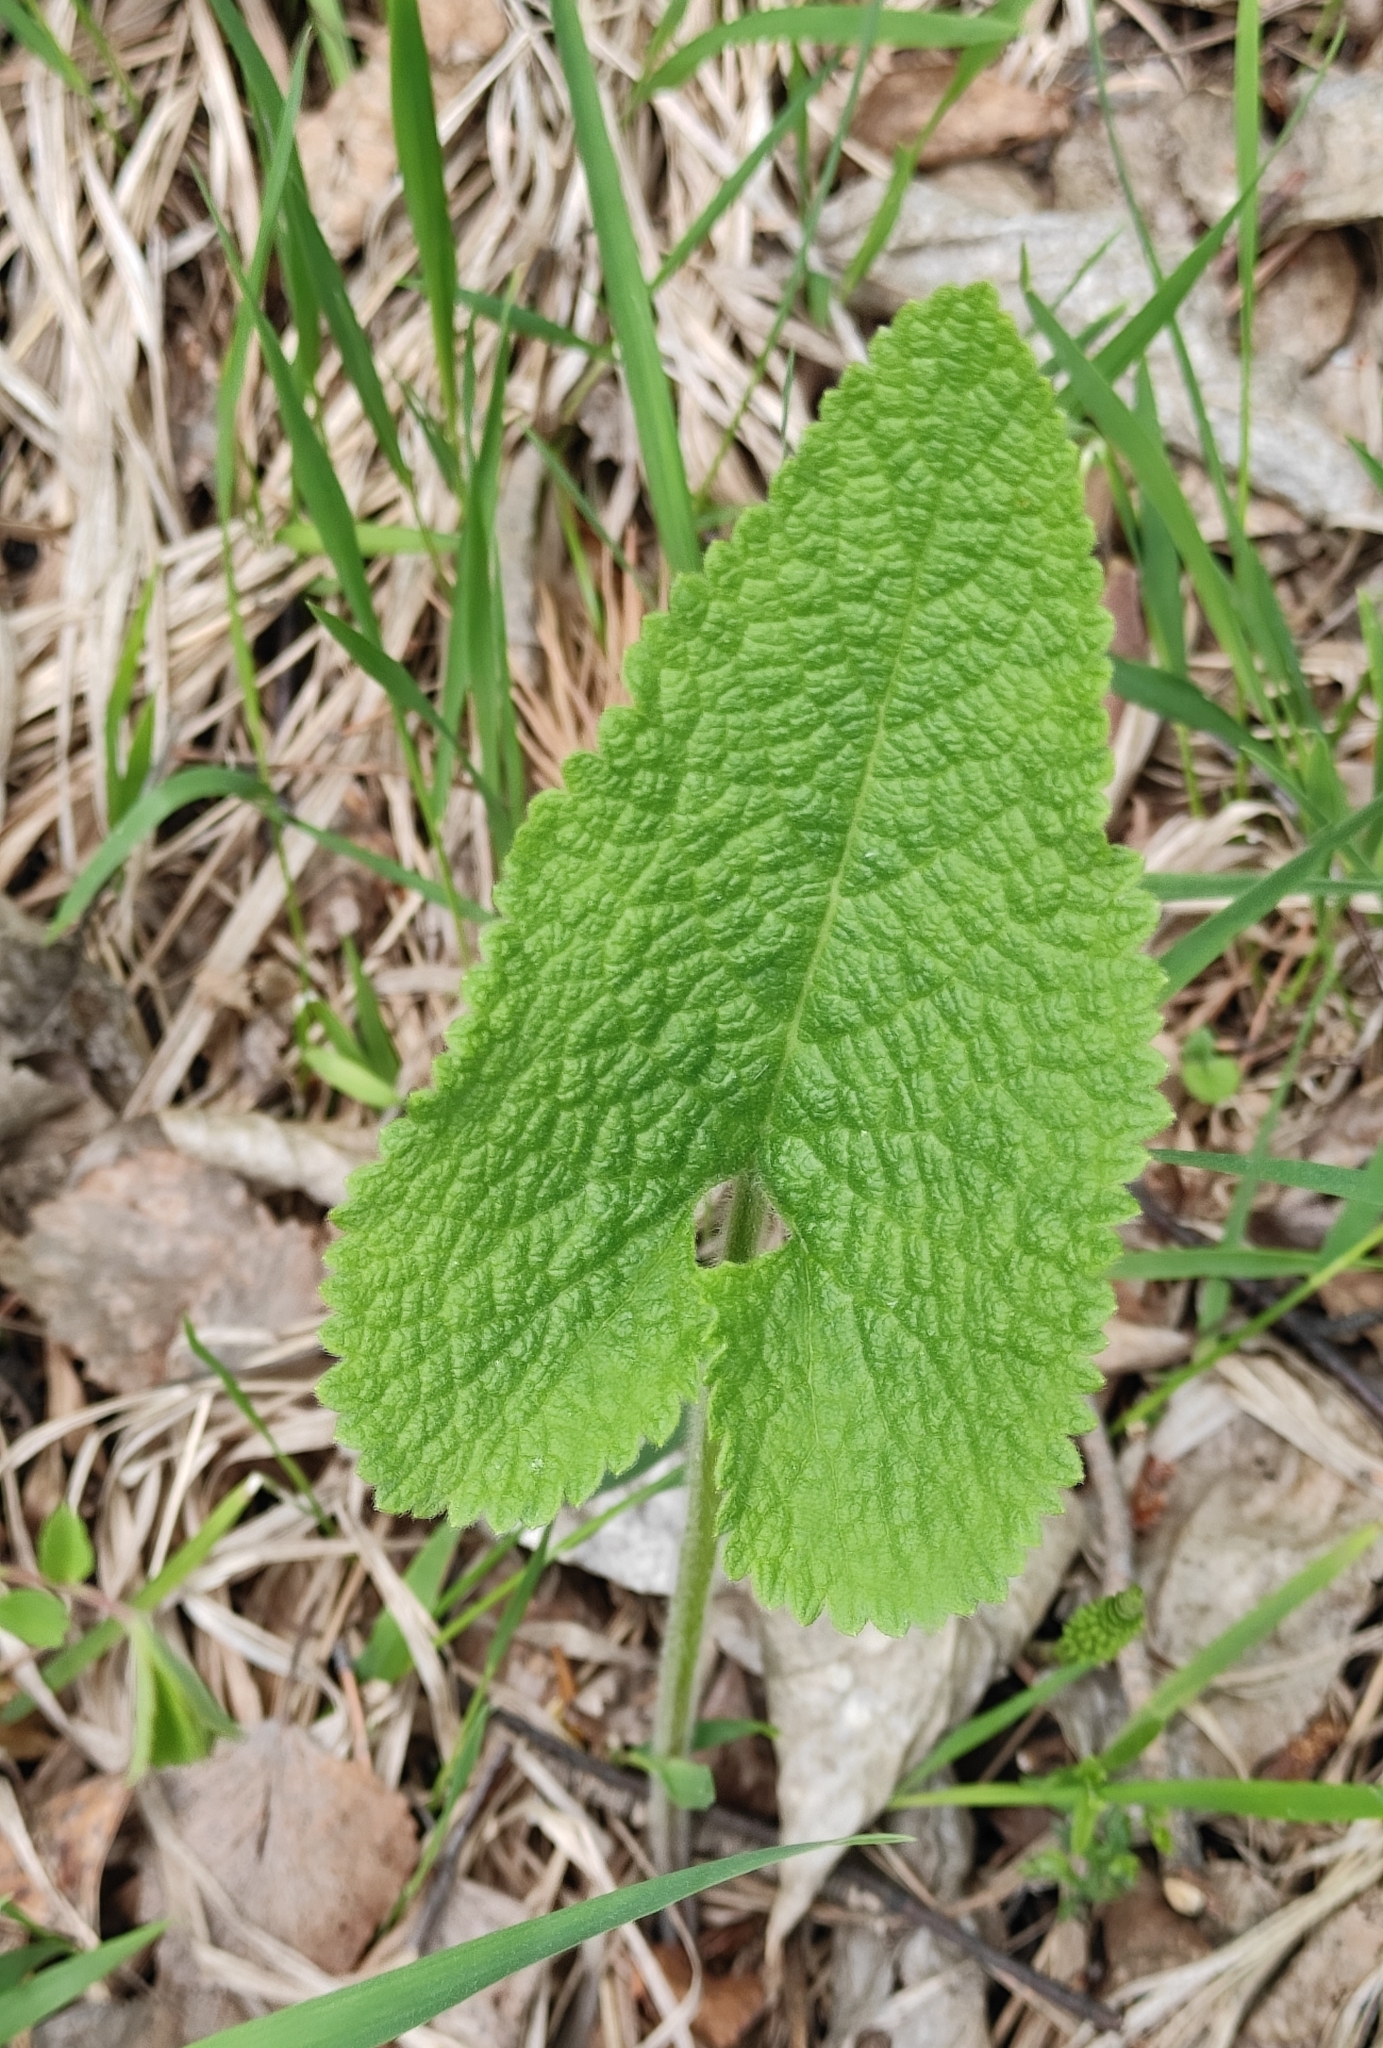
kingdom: Plantae
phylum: Tracheophyta
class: Magnoliopsida
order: Lamiales
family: Lamiaceae
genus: Phlomoides
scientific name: Phlomoides tuberosa
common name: Tuberous jerusalem sage
